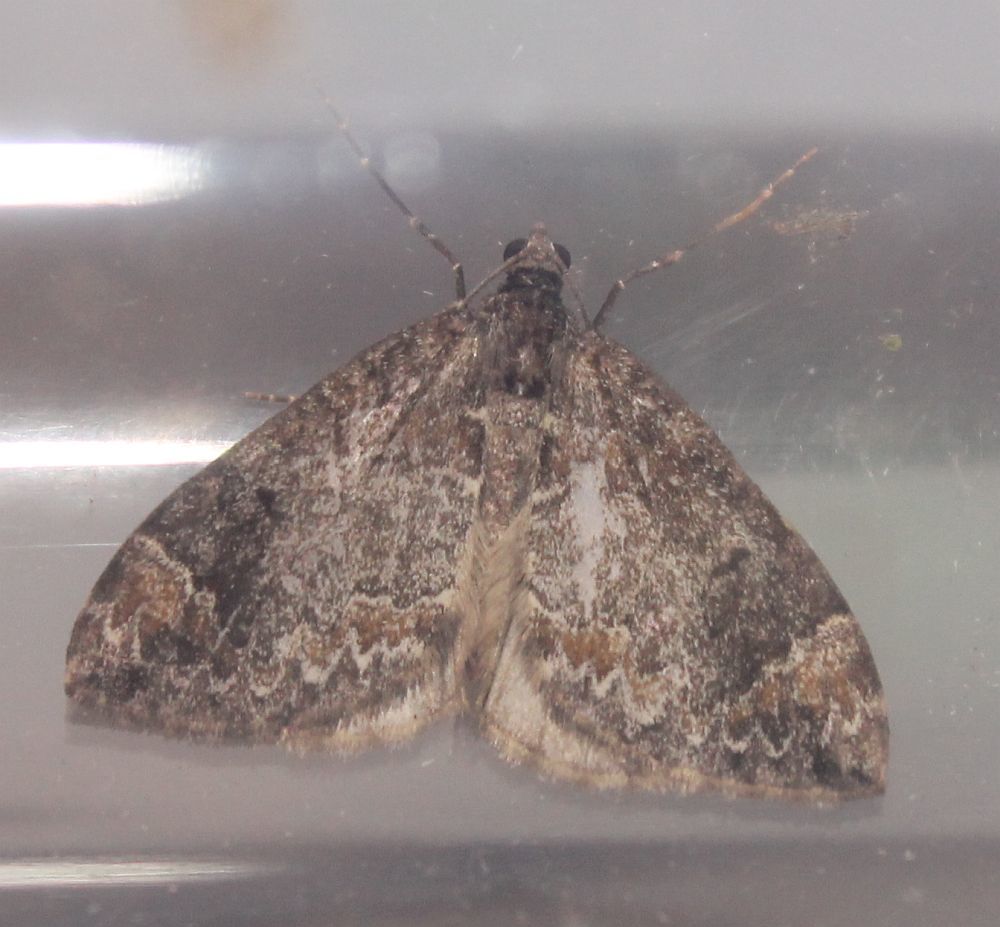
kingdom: Animalia
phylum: Arthropoda
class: Insecta
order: Lepidoptera
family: Geometridae
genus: Dysstroma
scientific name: Dysstroma truncata
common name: Common marbled carpet
